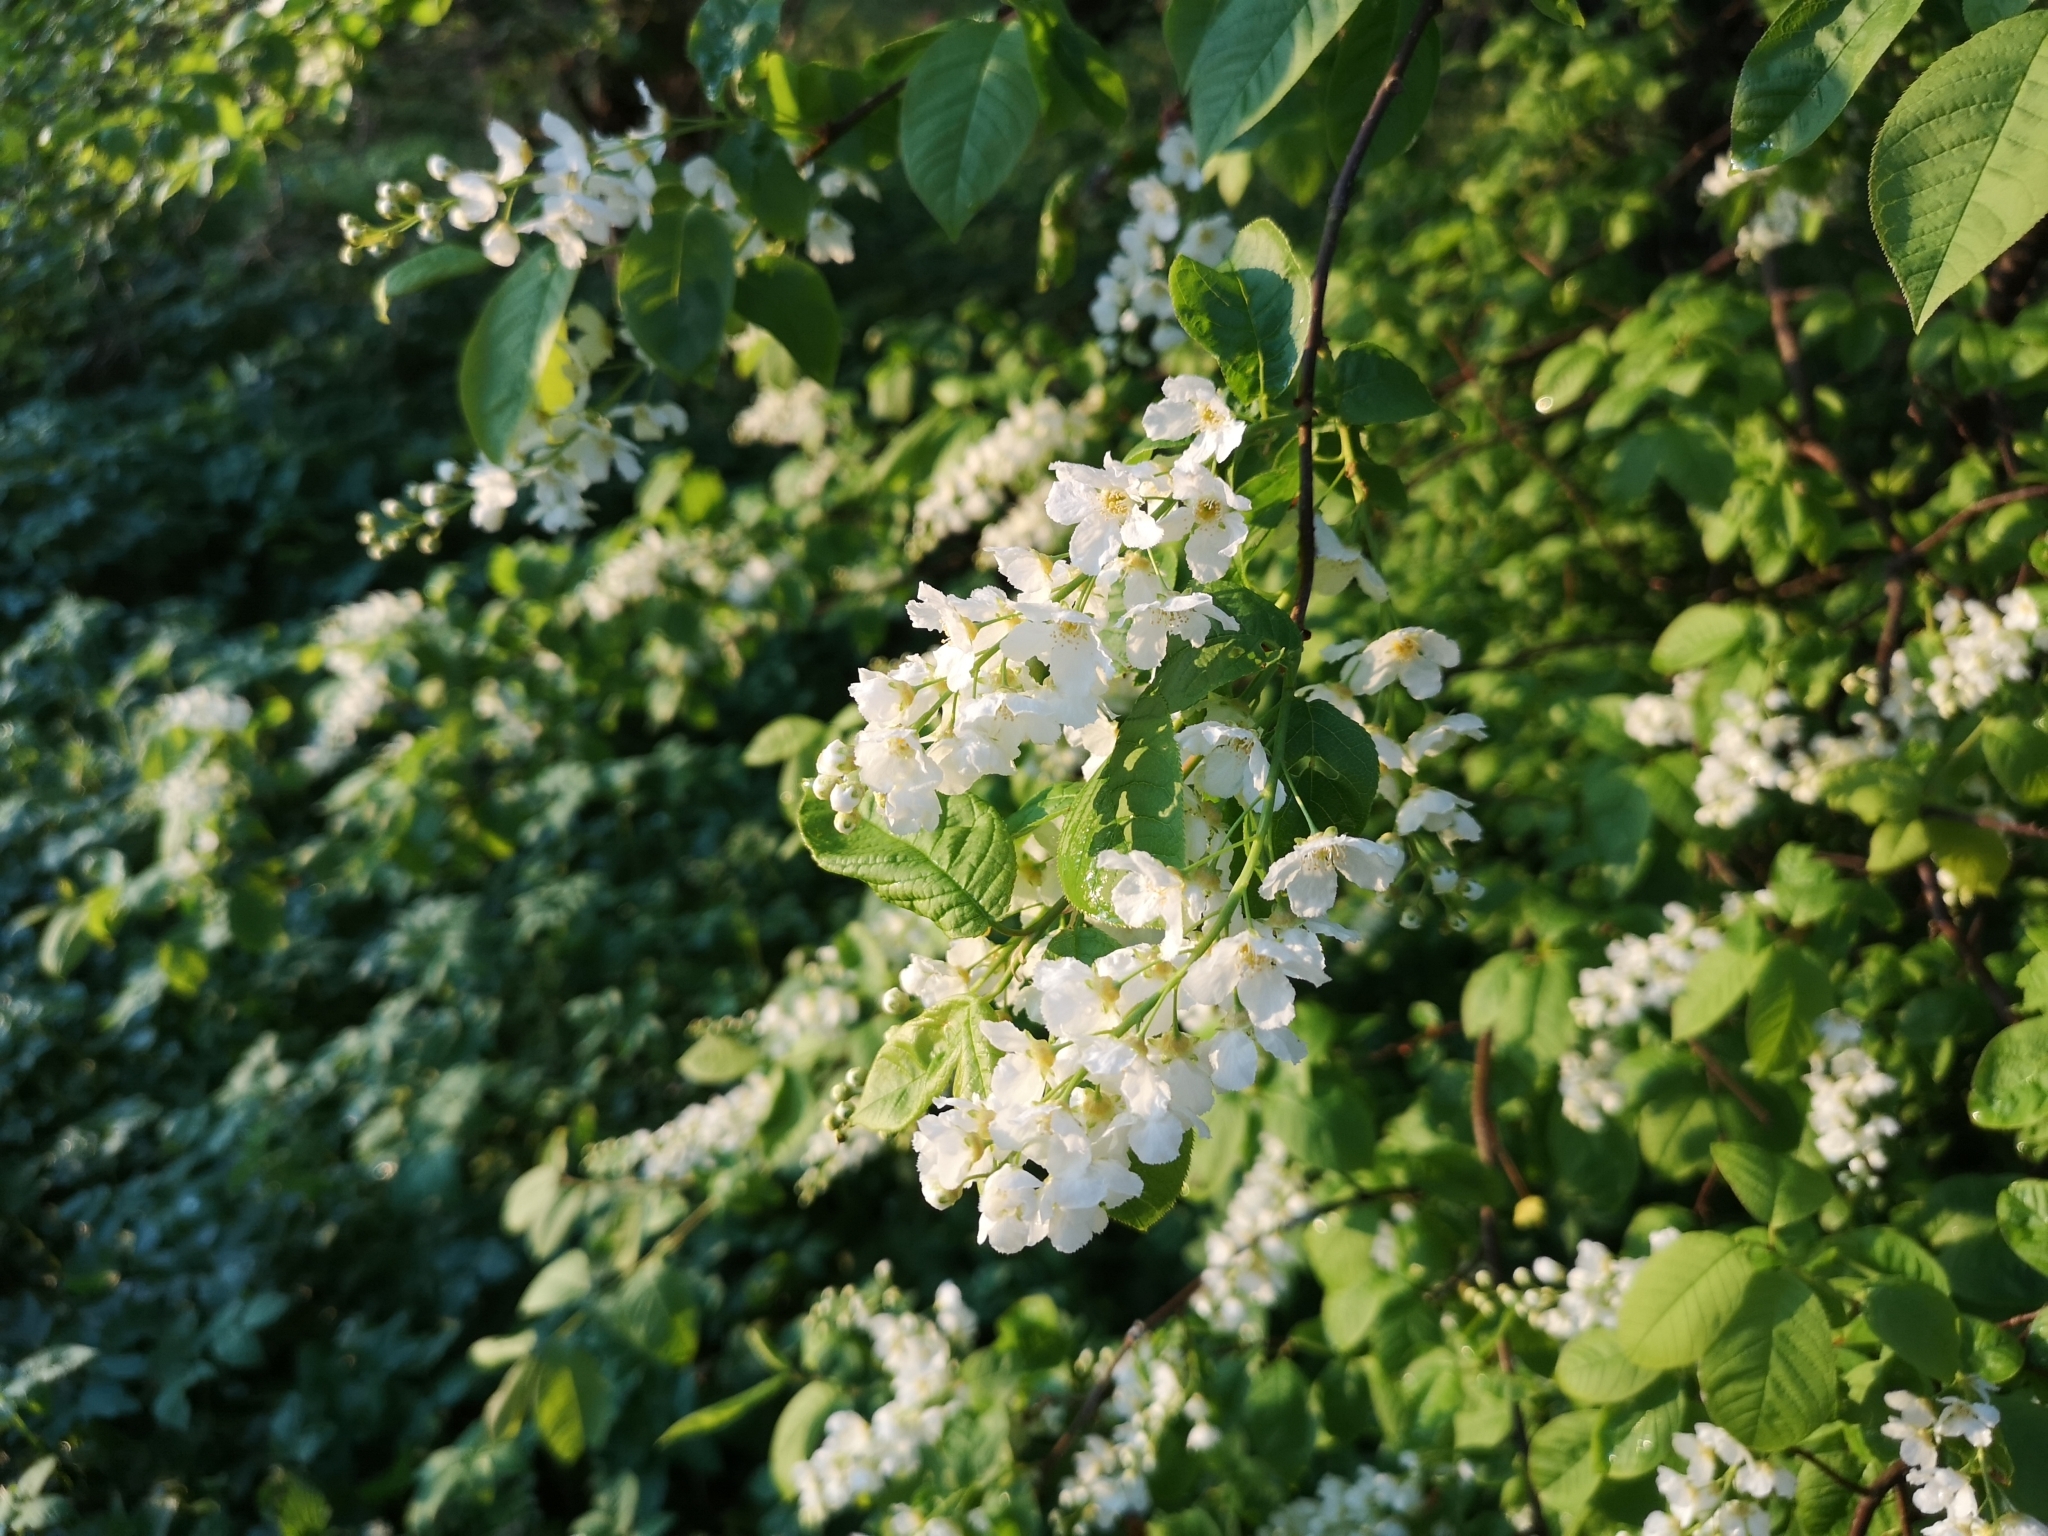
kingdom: Plantae
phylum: Tracheophyta
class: Magnoliopsida
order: Rosales
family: Rosaceae
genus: Prunus
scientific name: Prunus padus
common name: Bird cherry
